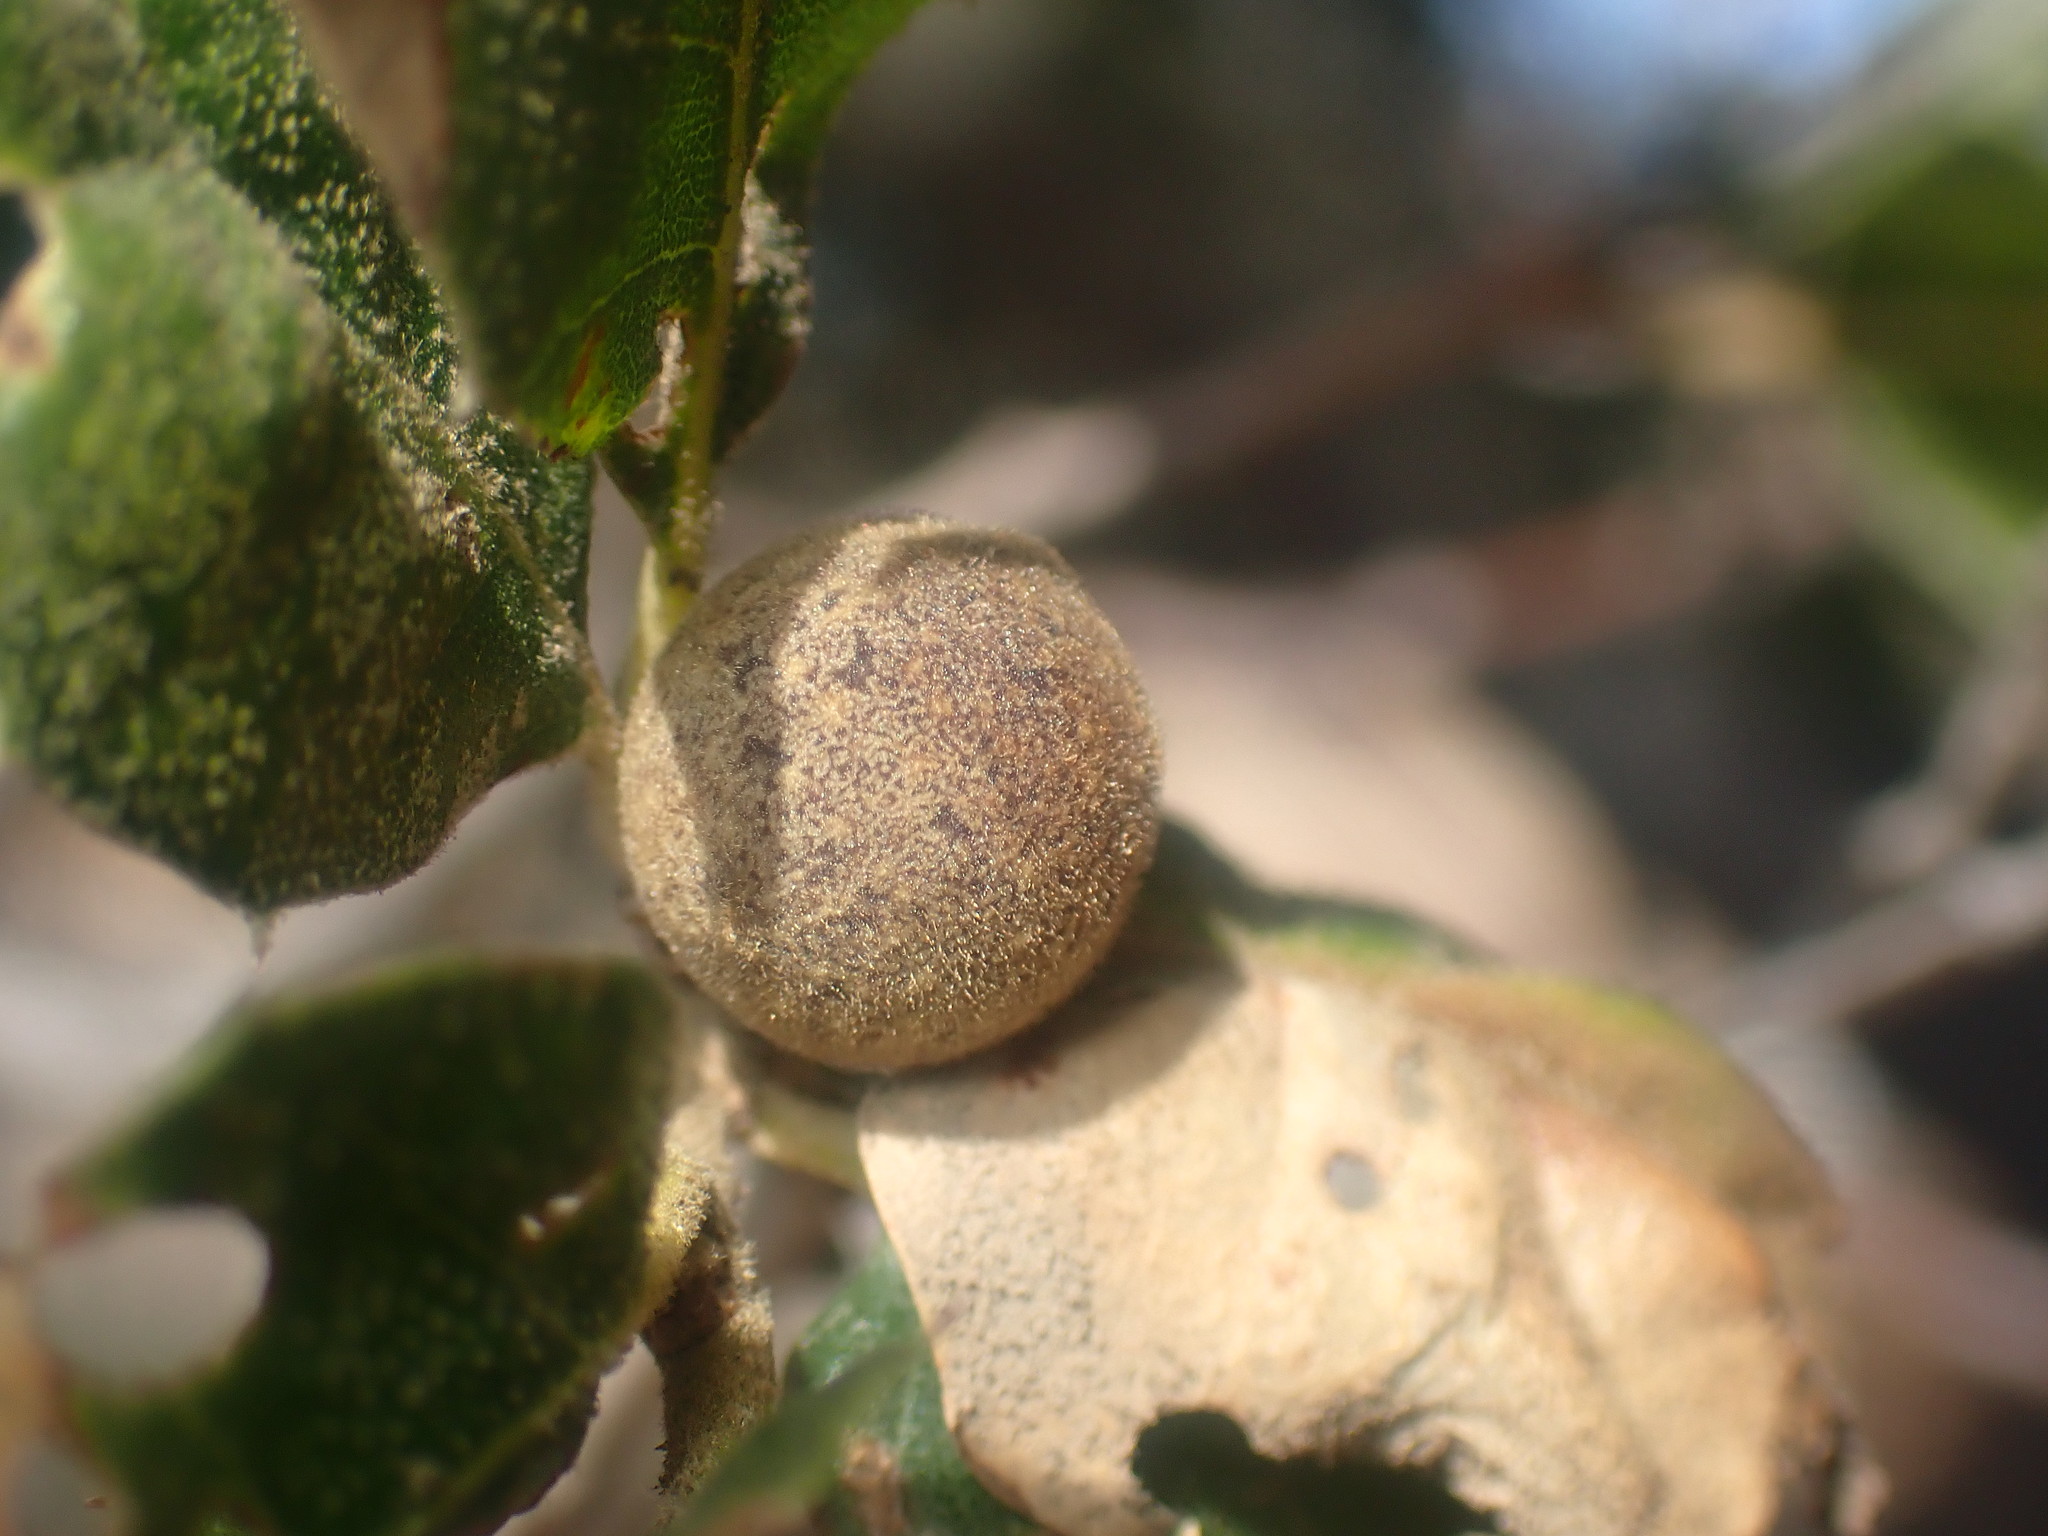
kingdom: Animalia
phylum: Arthropoda
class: Insecta
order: Hymenoptera
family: Cynipidae
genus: Callirhytis
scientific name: Callirhytis
